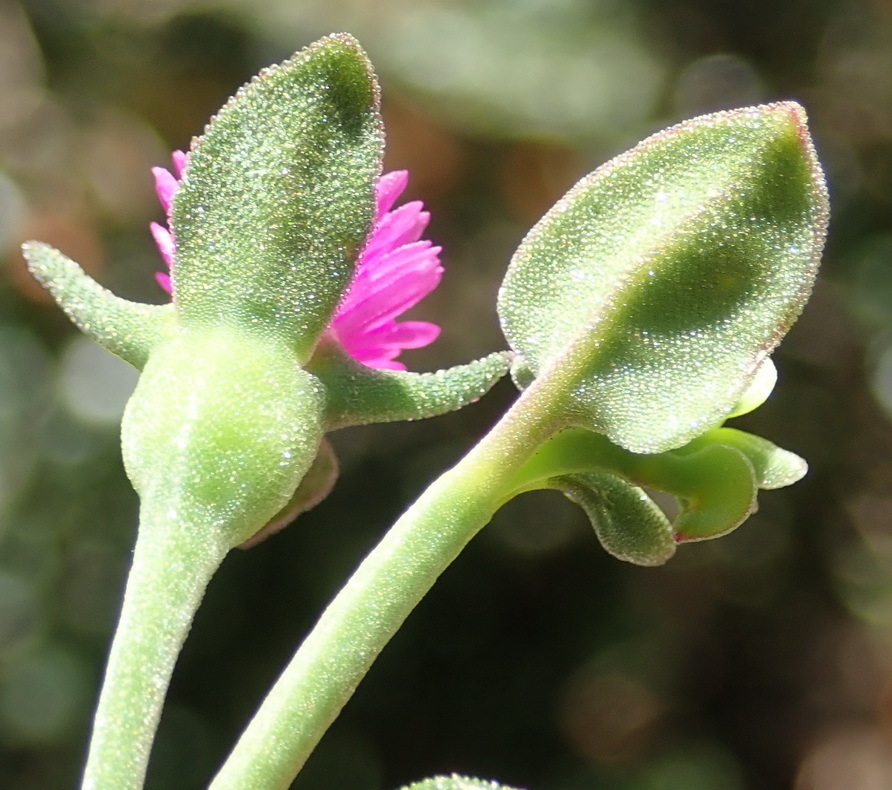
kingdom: Plantae
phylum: Tracheophyta
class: Magnoliopsida
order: Caryophyllales
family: Aizoaceae
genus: Mesembryanthemum
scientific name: Mesembryanthemum cordifolium
